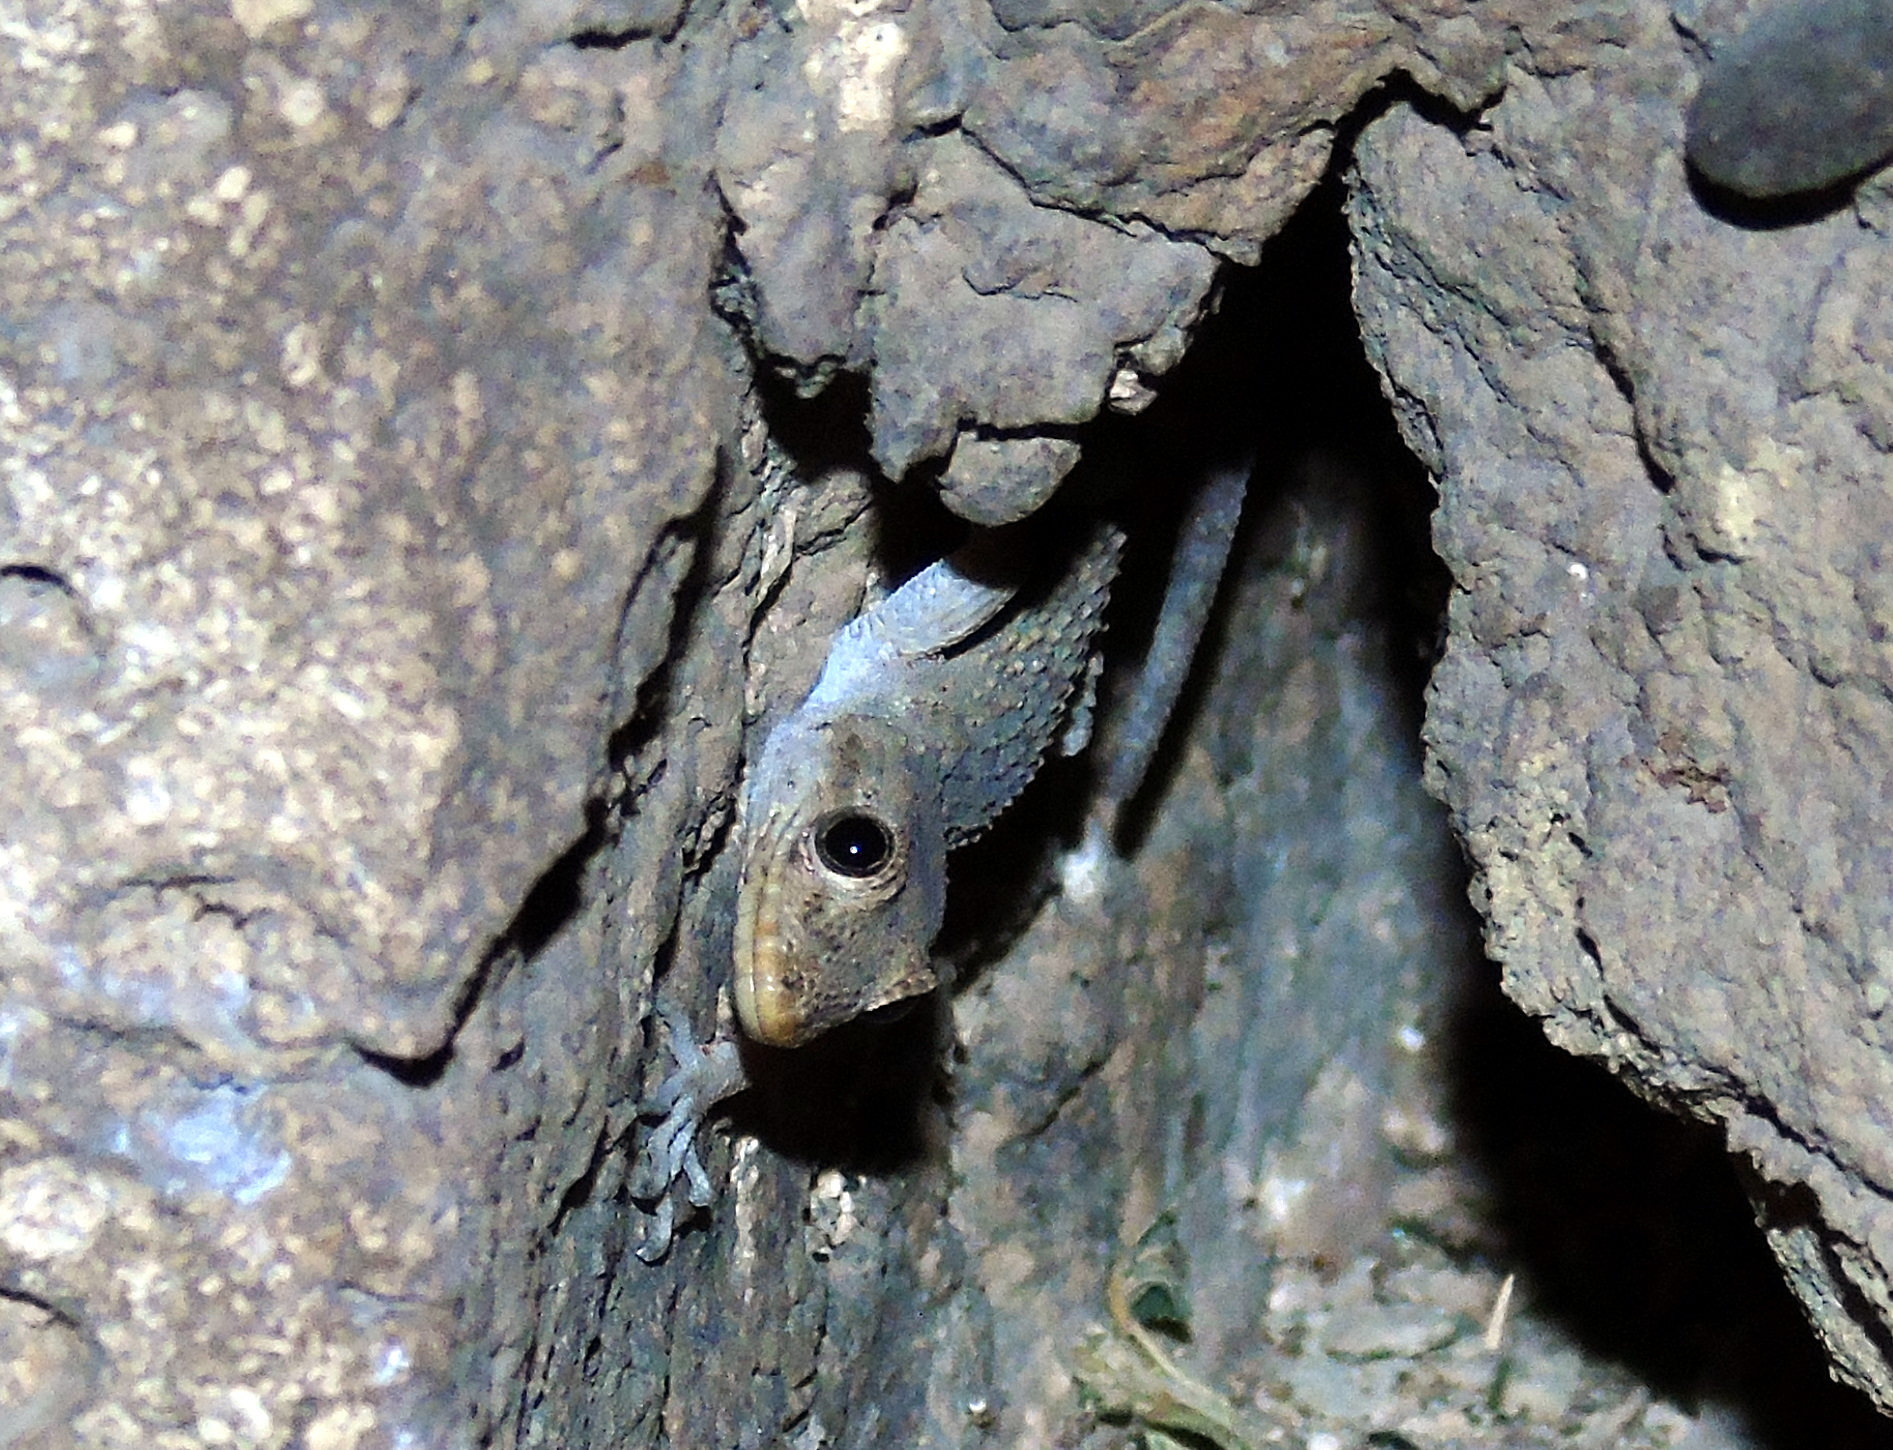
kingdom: Animalia
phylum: Chordata
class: Squamata
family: Gekkonidae
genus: Mediodactylus
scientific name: Mediodactylus kotschyi
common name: Kotschy's gecko
